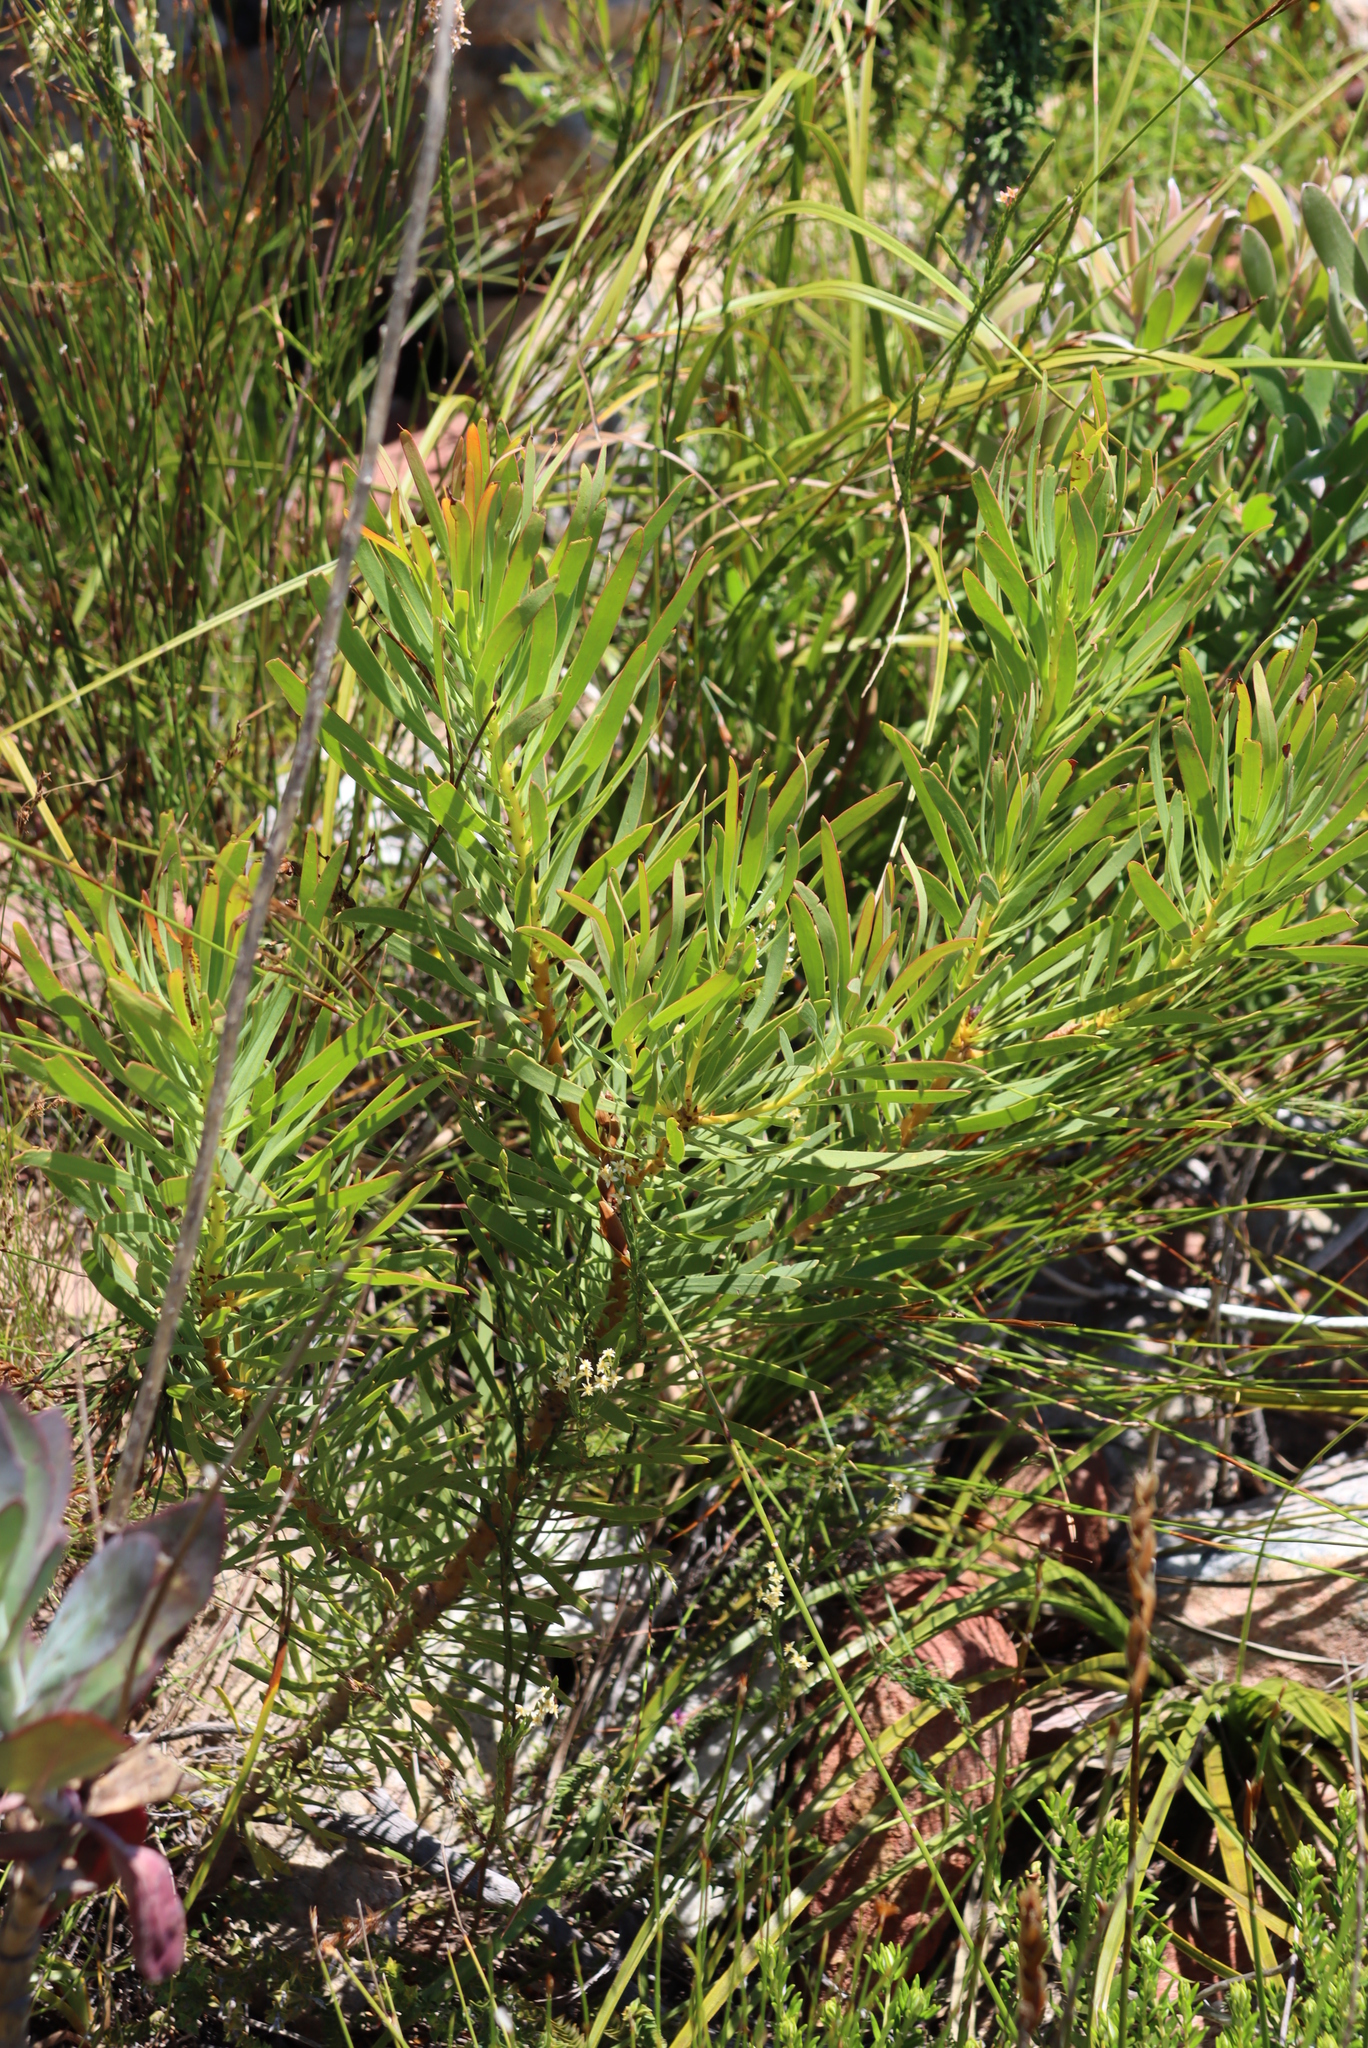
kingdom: Plantae
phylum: Tracheophyta
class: Magnoliopsida
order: Proteales
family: Proteaceae
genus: Protea
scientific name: Protea repens
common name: Sugarbush
